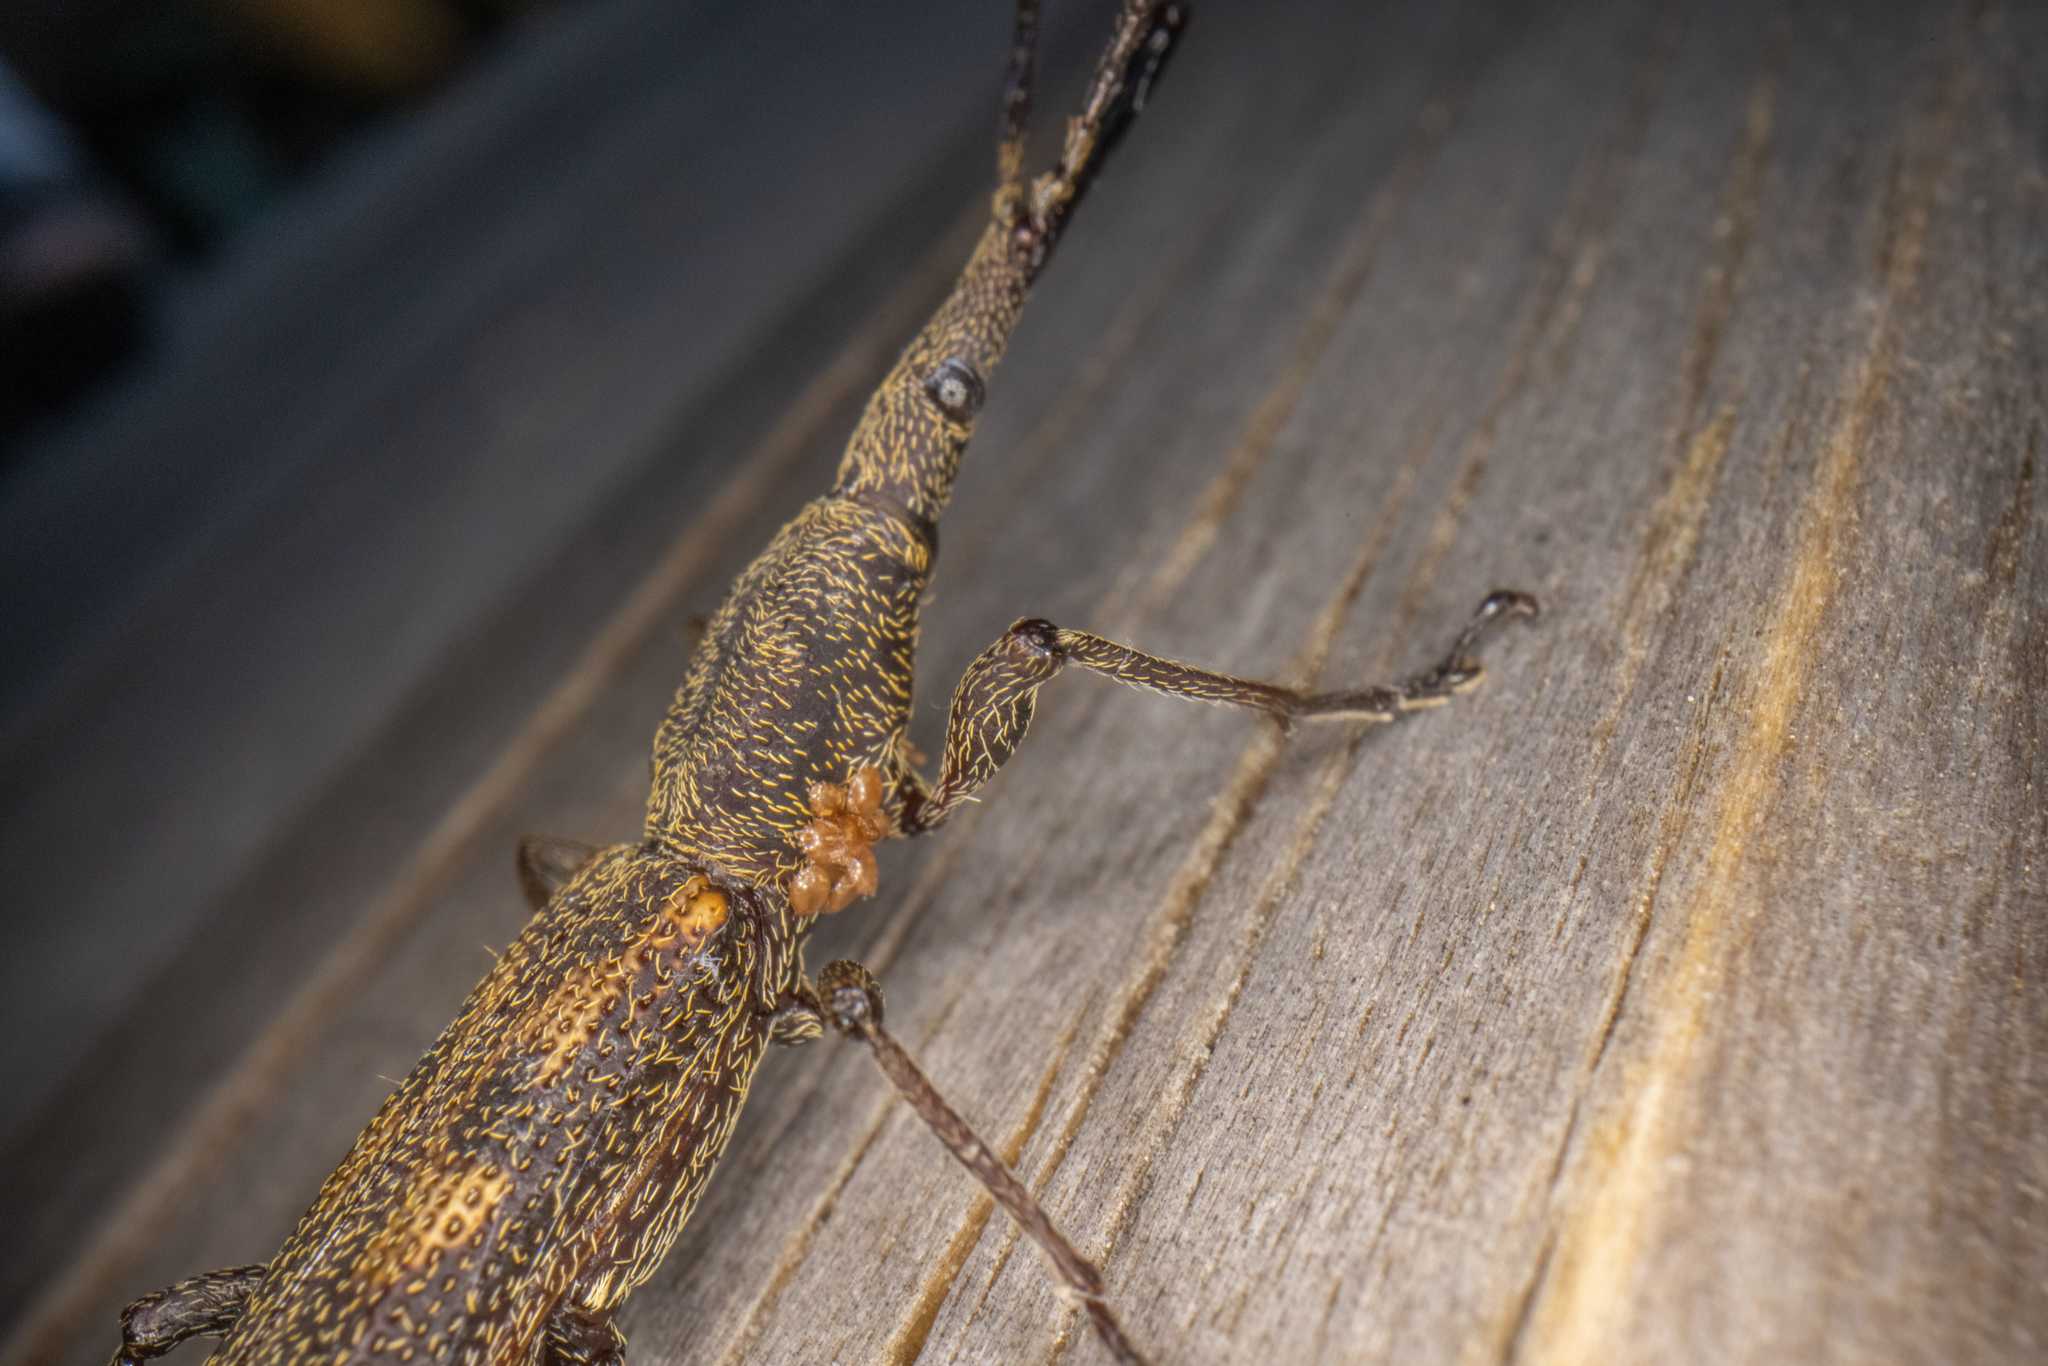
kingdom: Animalia
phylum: Arthropoda
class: Insecta
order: Coleoptera
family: Brentidae
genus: Lasiorhynchus
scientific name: Lasiorhynchus barbicornis
